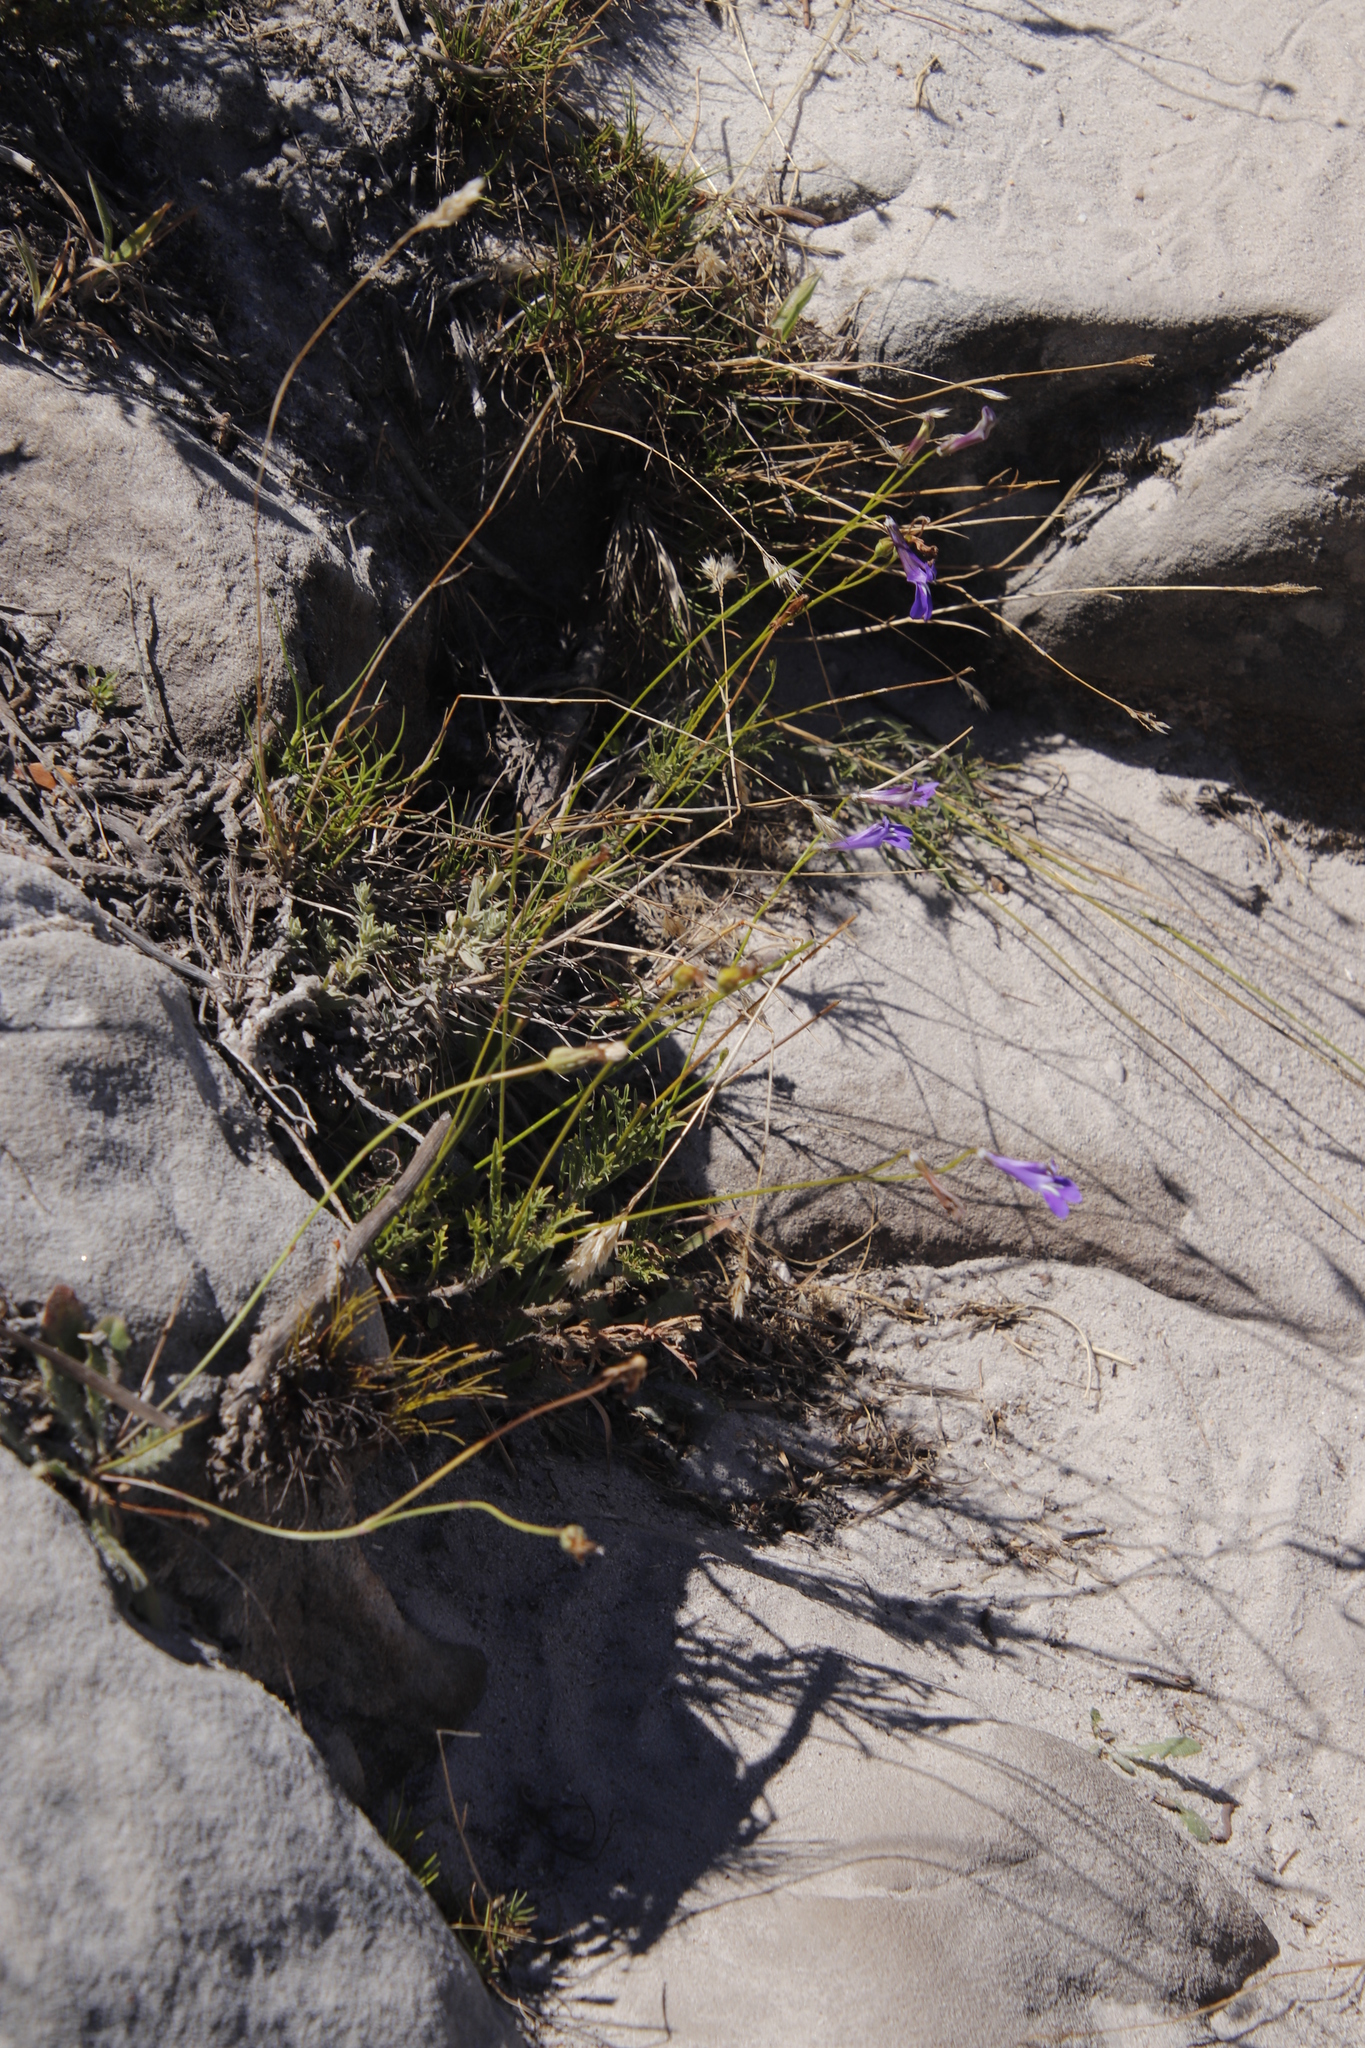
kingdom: Plantae
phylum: Tracheophyta
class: Magnoliopsida
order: Asterales
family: Campanulaceae
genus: Lobelia
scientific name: Lobelia coronopifolia
